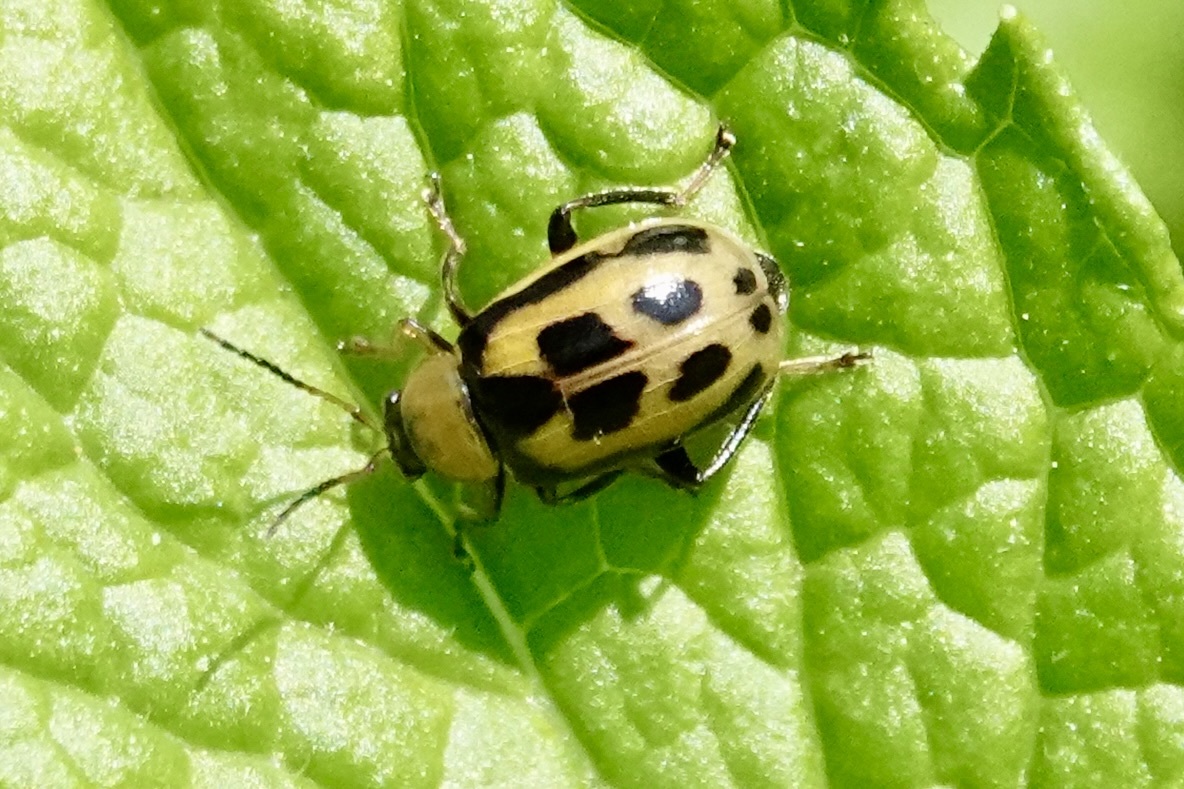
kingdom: Animalia
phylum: Arthropoda
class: Insecta
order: Coleoptera
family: Chrysomelidae
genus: Cerotoma
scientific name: Cerotoma trifurcata
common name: Bean leaf beetle
